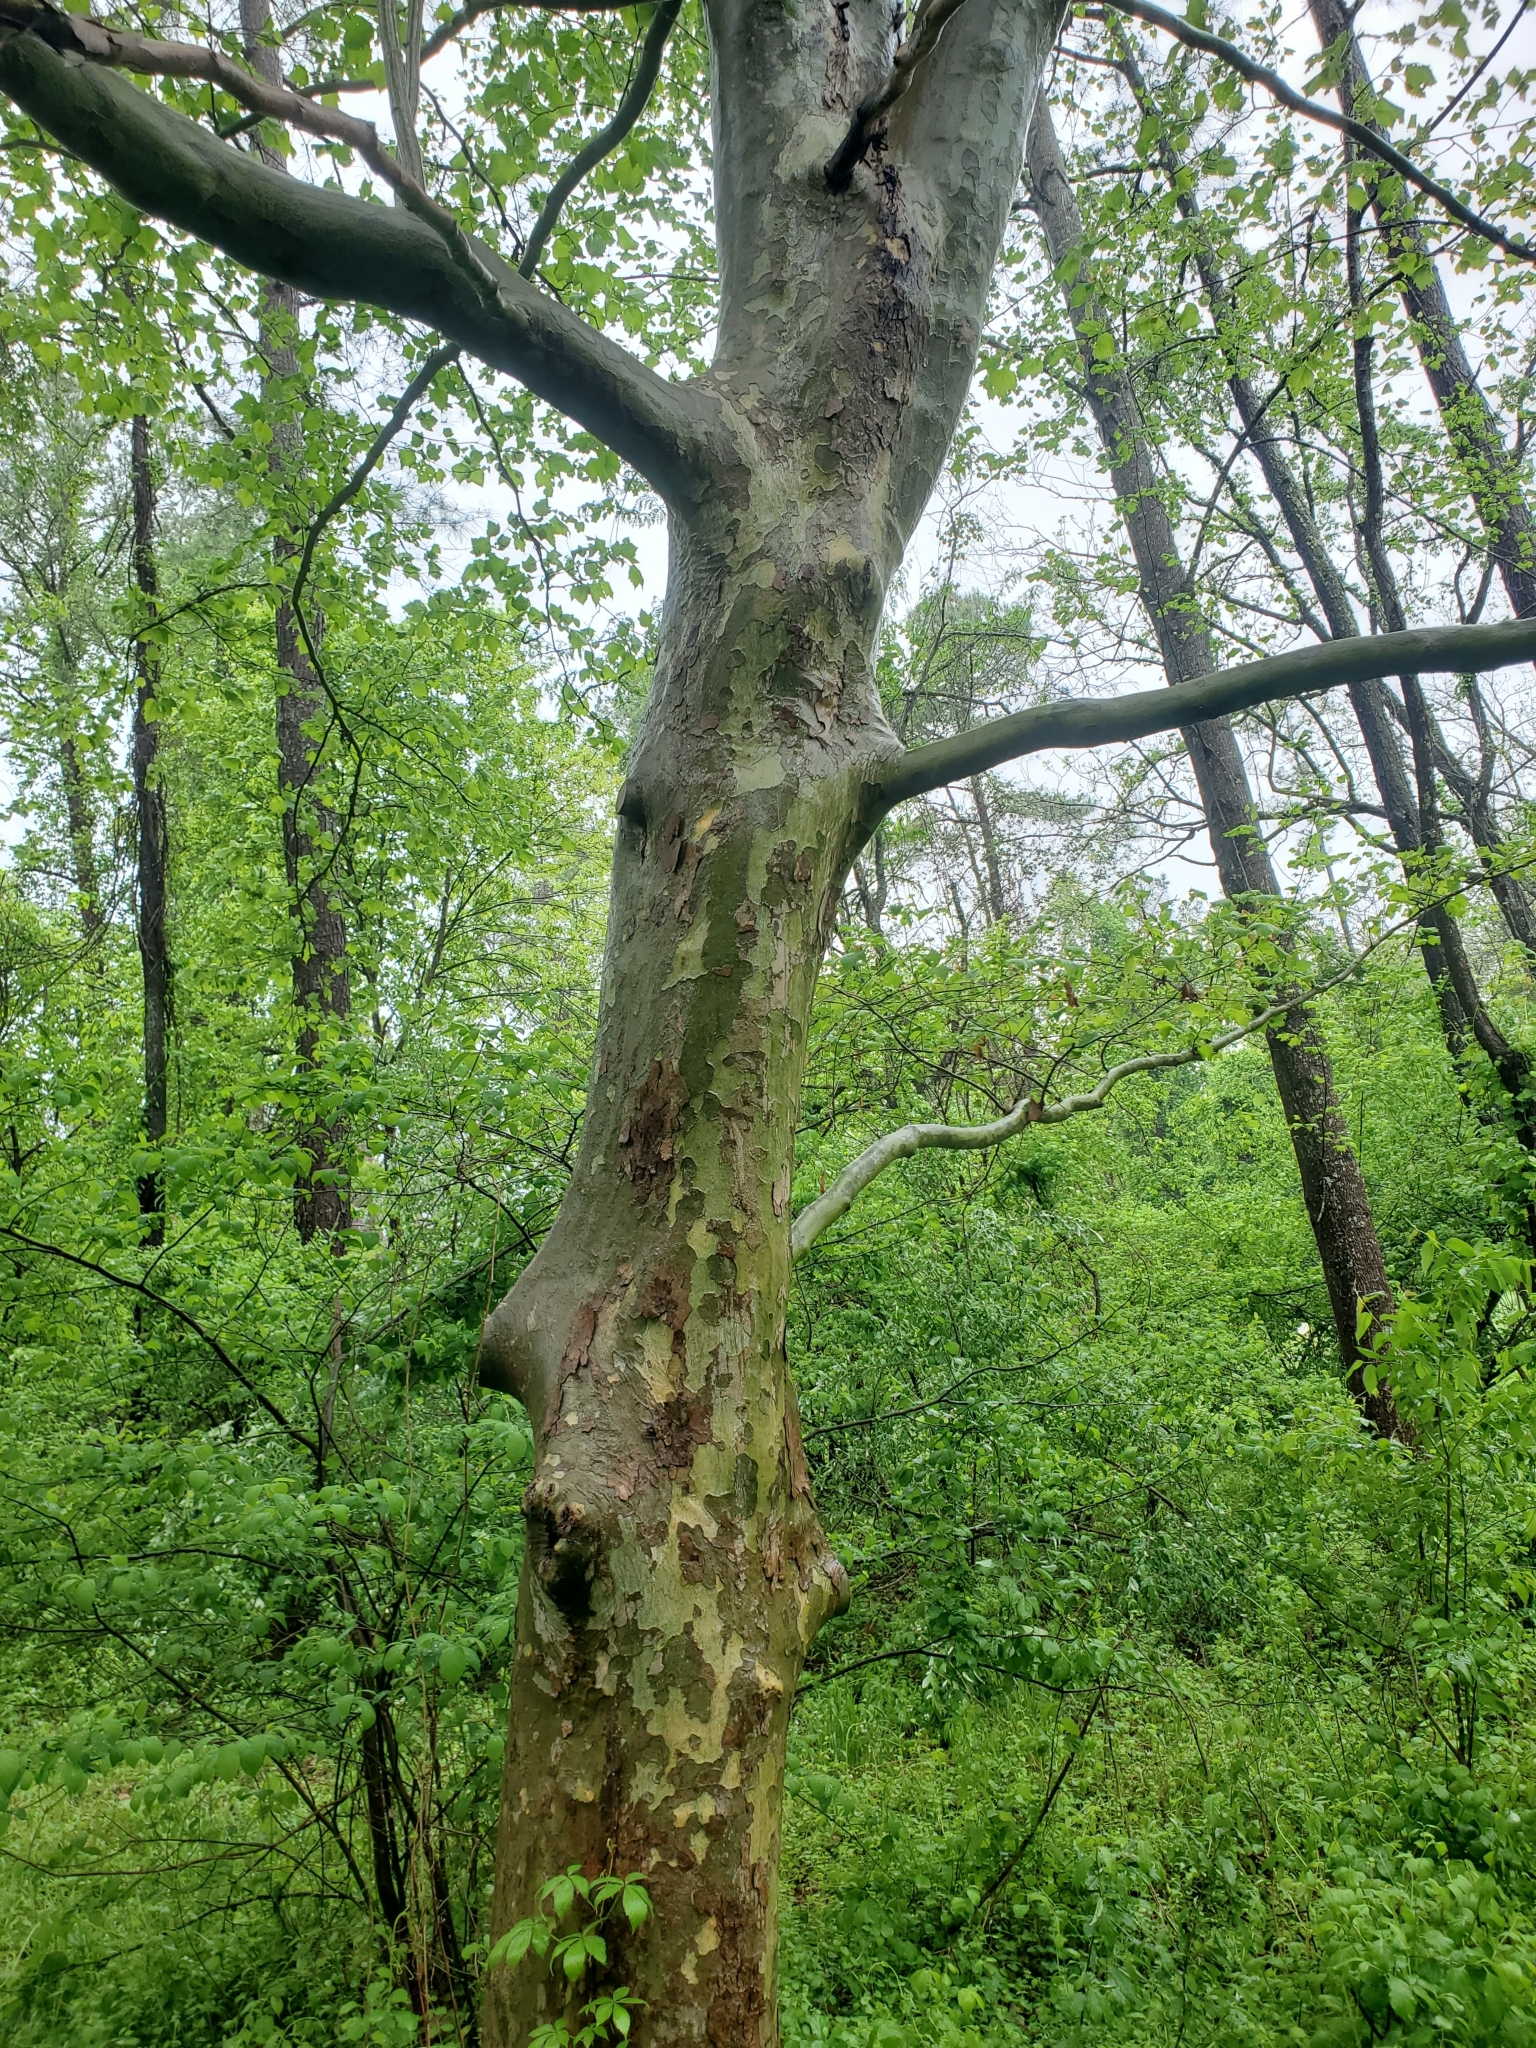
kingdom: Plantae
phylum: Tracheophyta
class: Magnoliopsida
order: Proteales
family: Platanaceae
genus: Platanus
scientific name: Platanus occidentalis
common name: American sycamore
